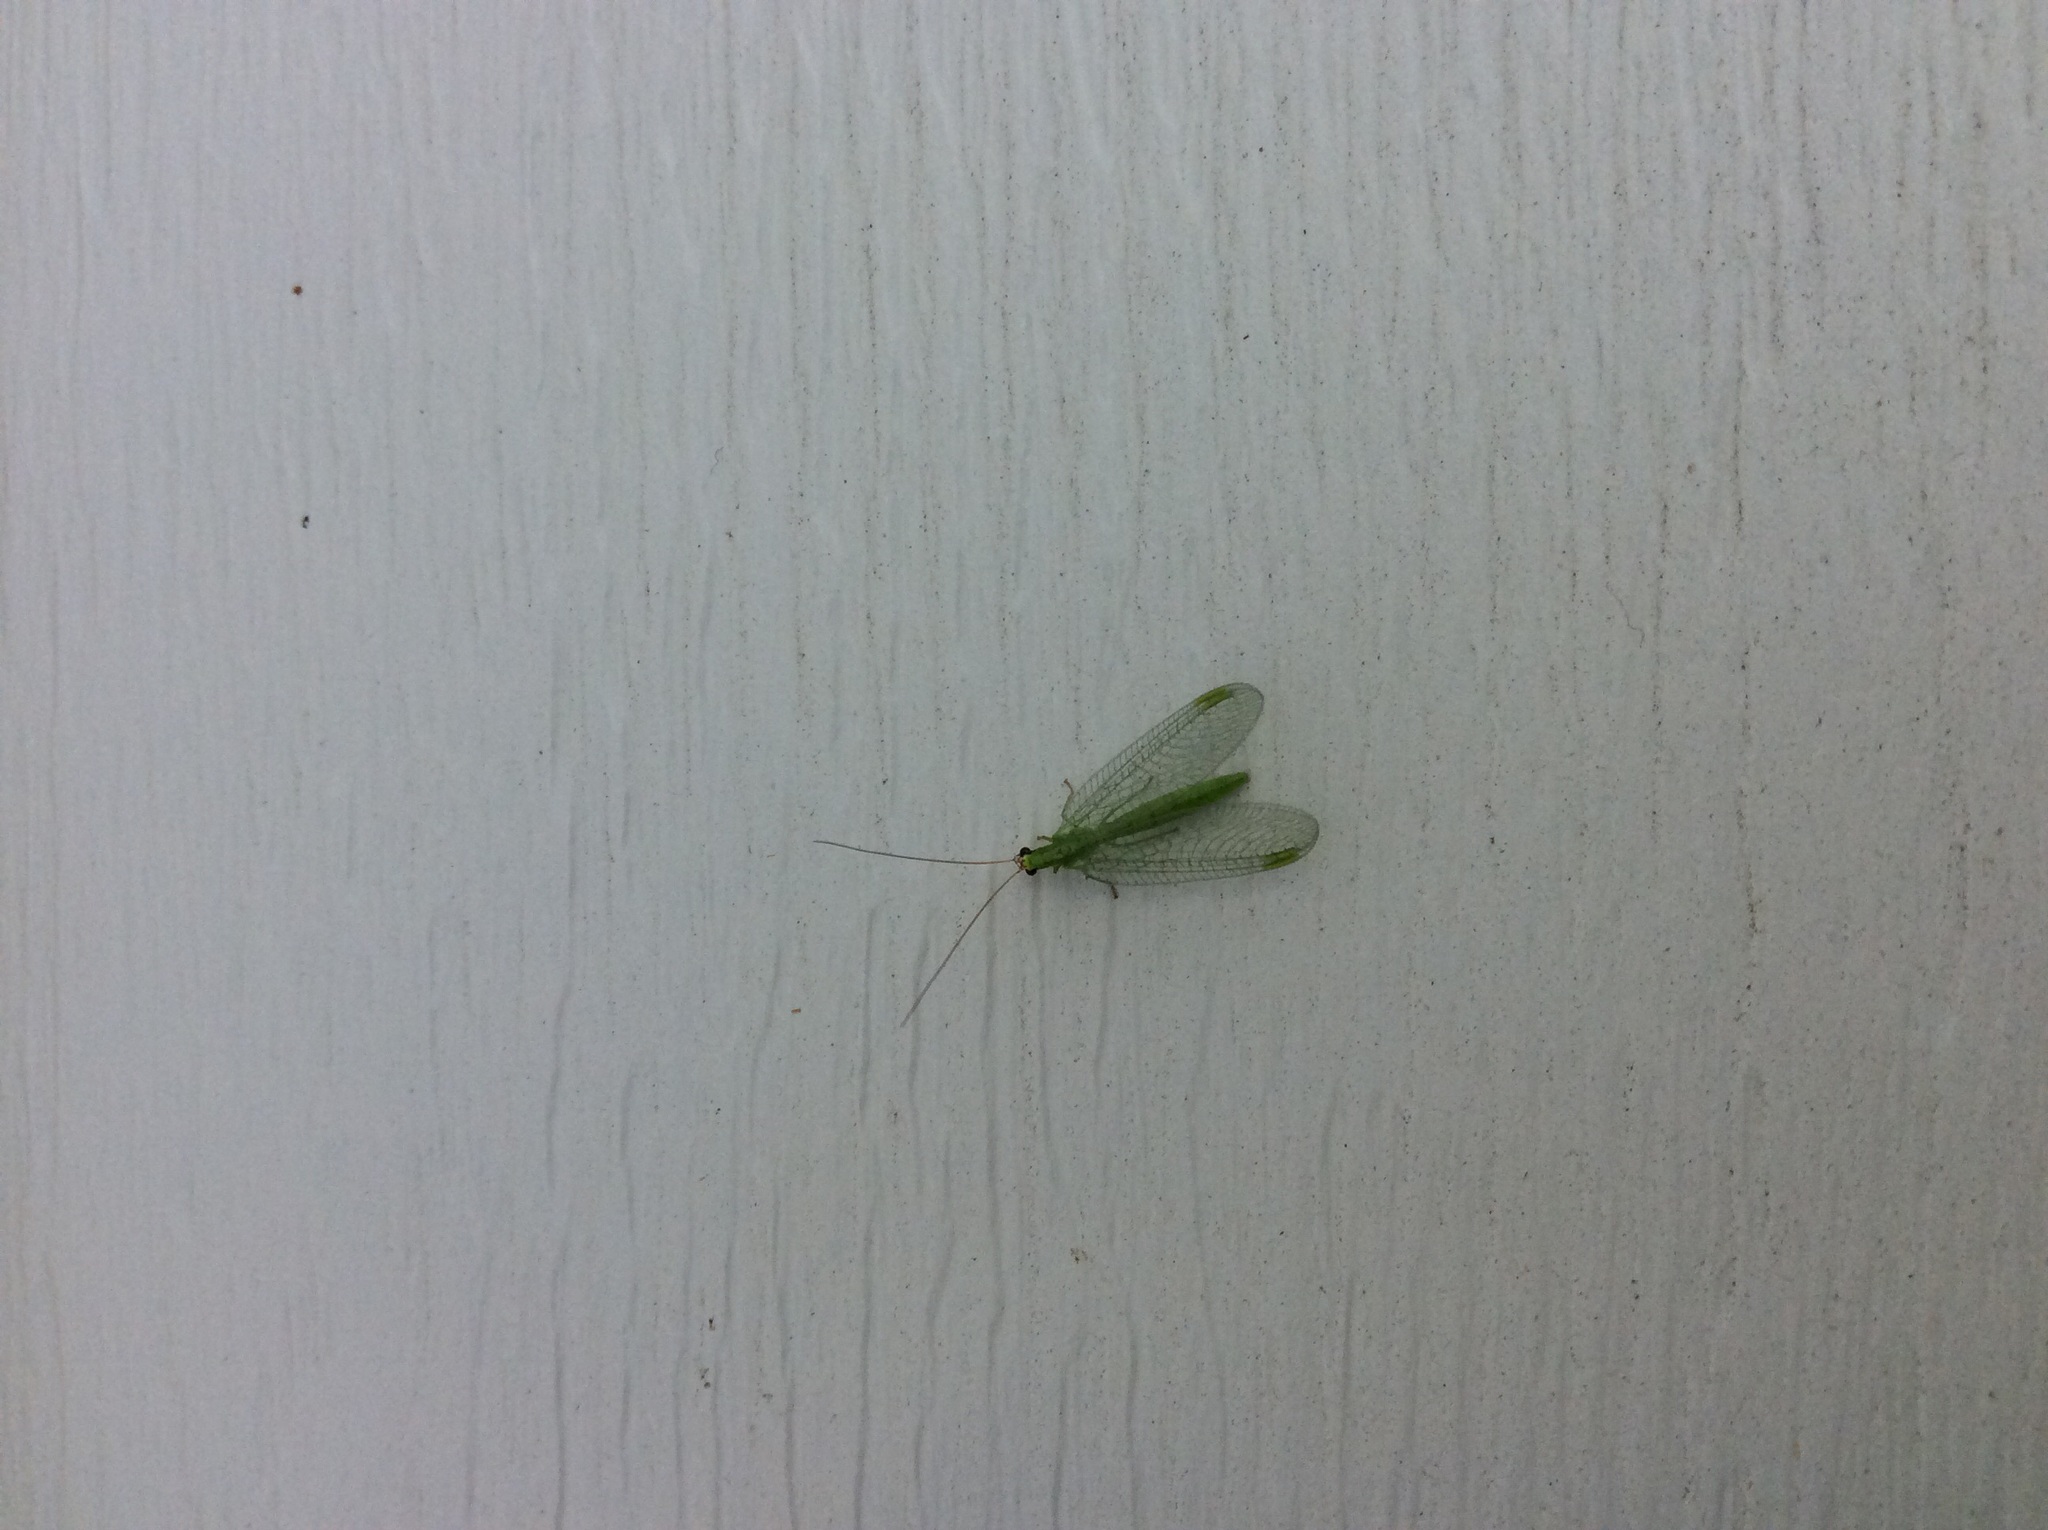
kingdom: Animalia
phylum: Arthropoda
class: Insecta
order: Neuroptera
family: Chrysopidae
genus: Chrysopa
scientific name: Chrysopa oculata
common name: Golden-eyed lacewing
